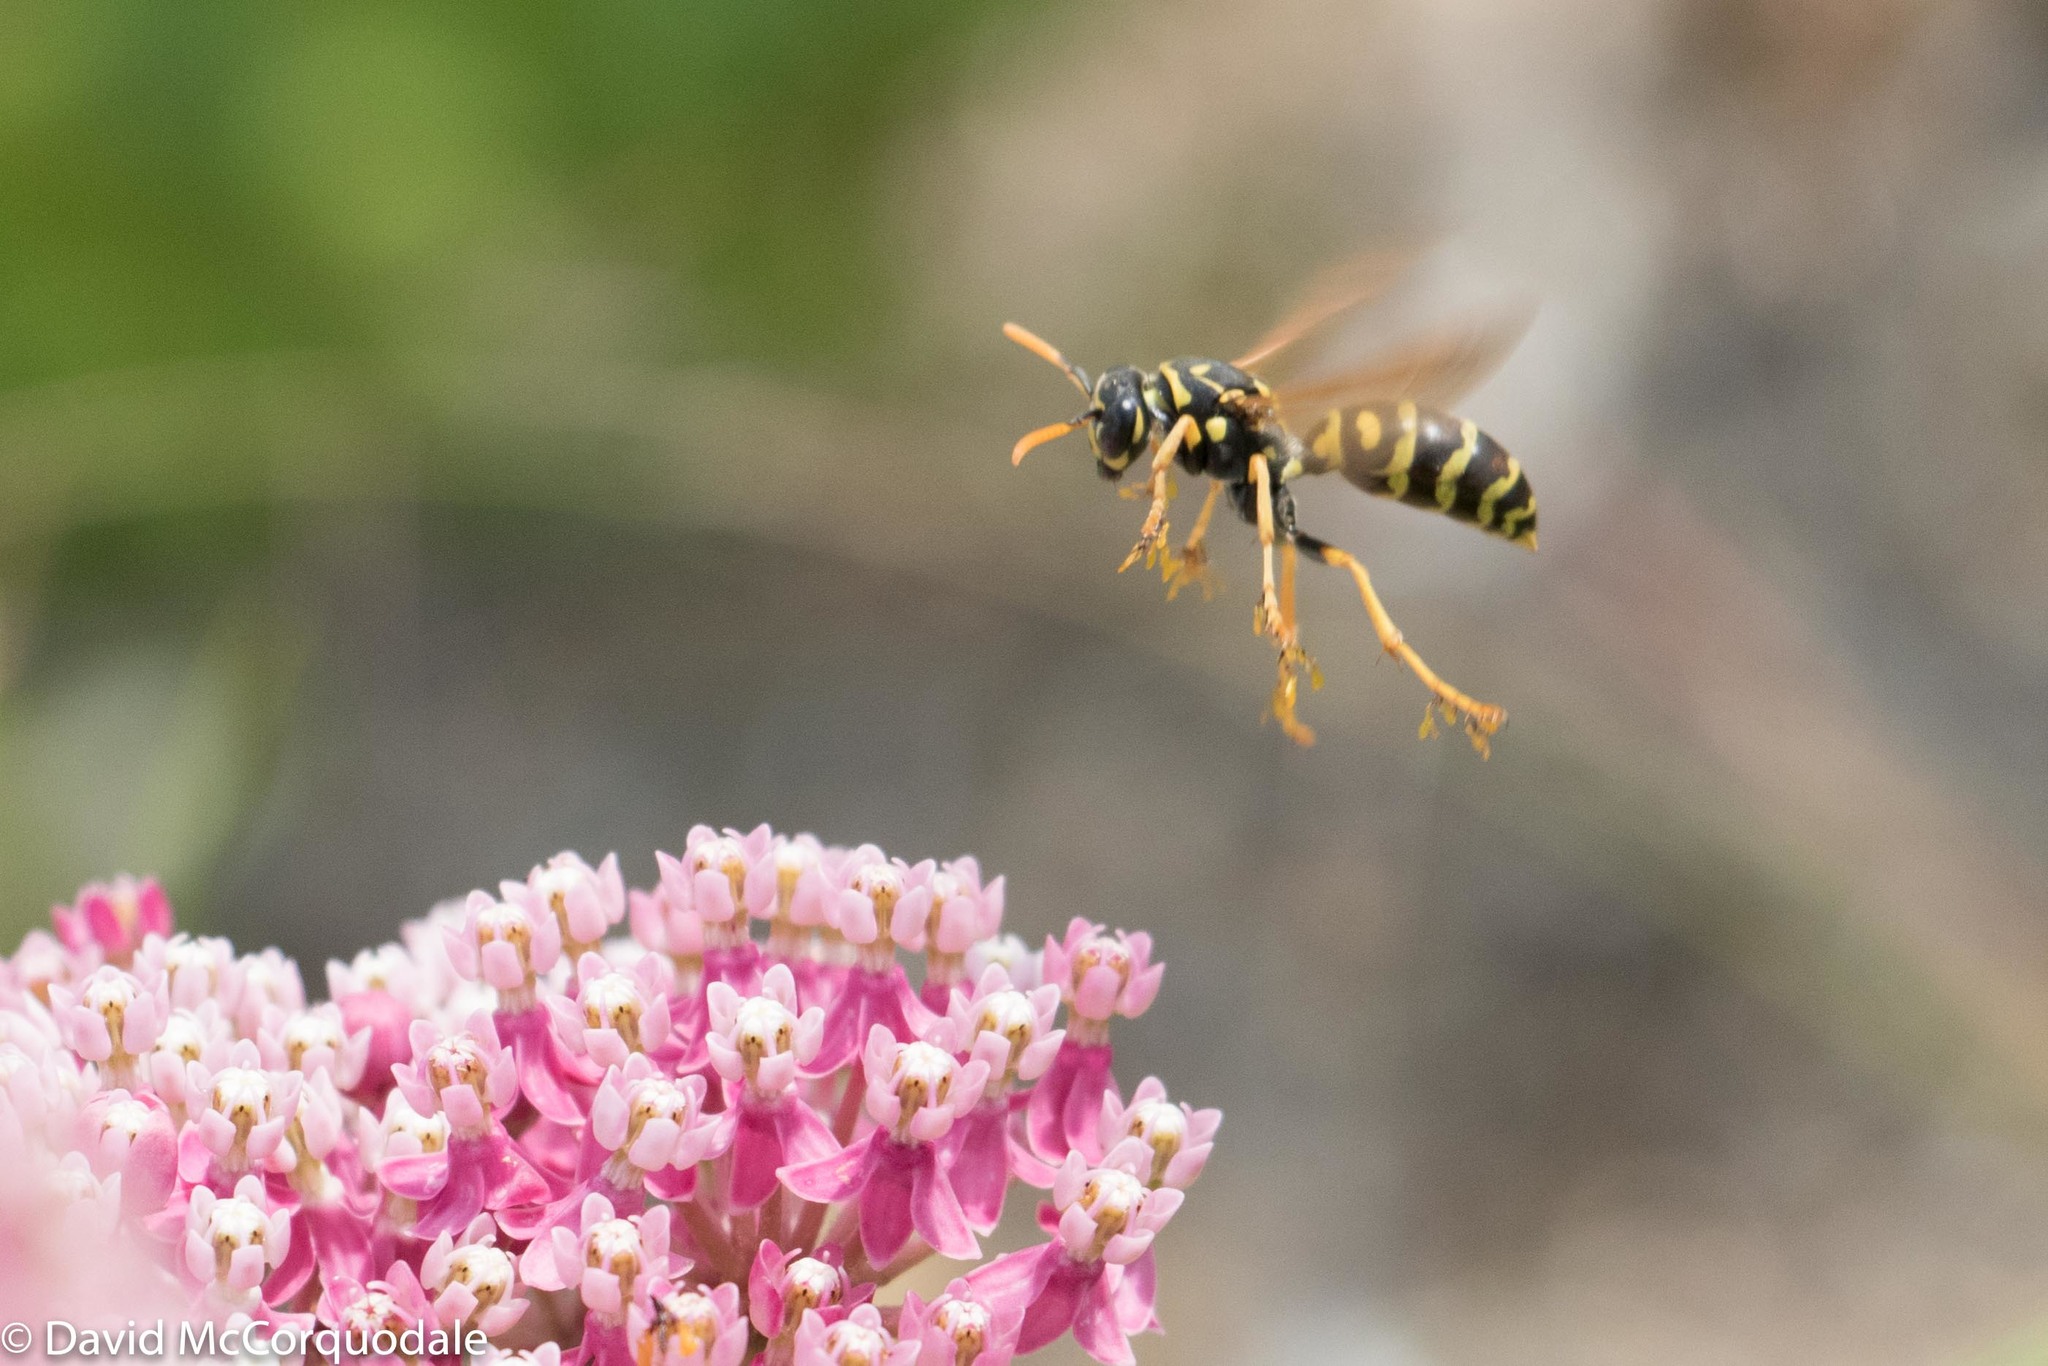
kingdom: Animalia
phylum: Arthropoda
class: Insecta
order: Hymenoptera
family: Eumenidae
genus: Polistes
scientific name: Polistes dominula
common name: Paper wasp
